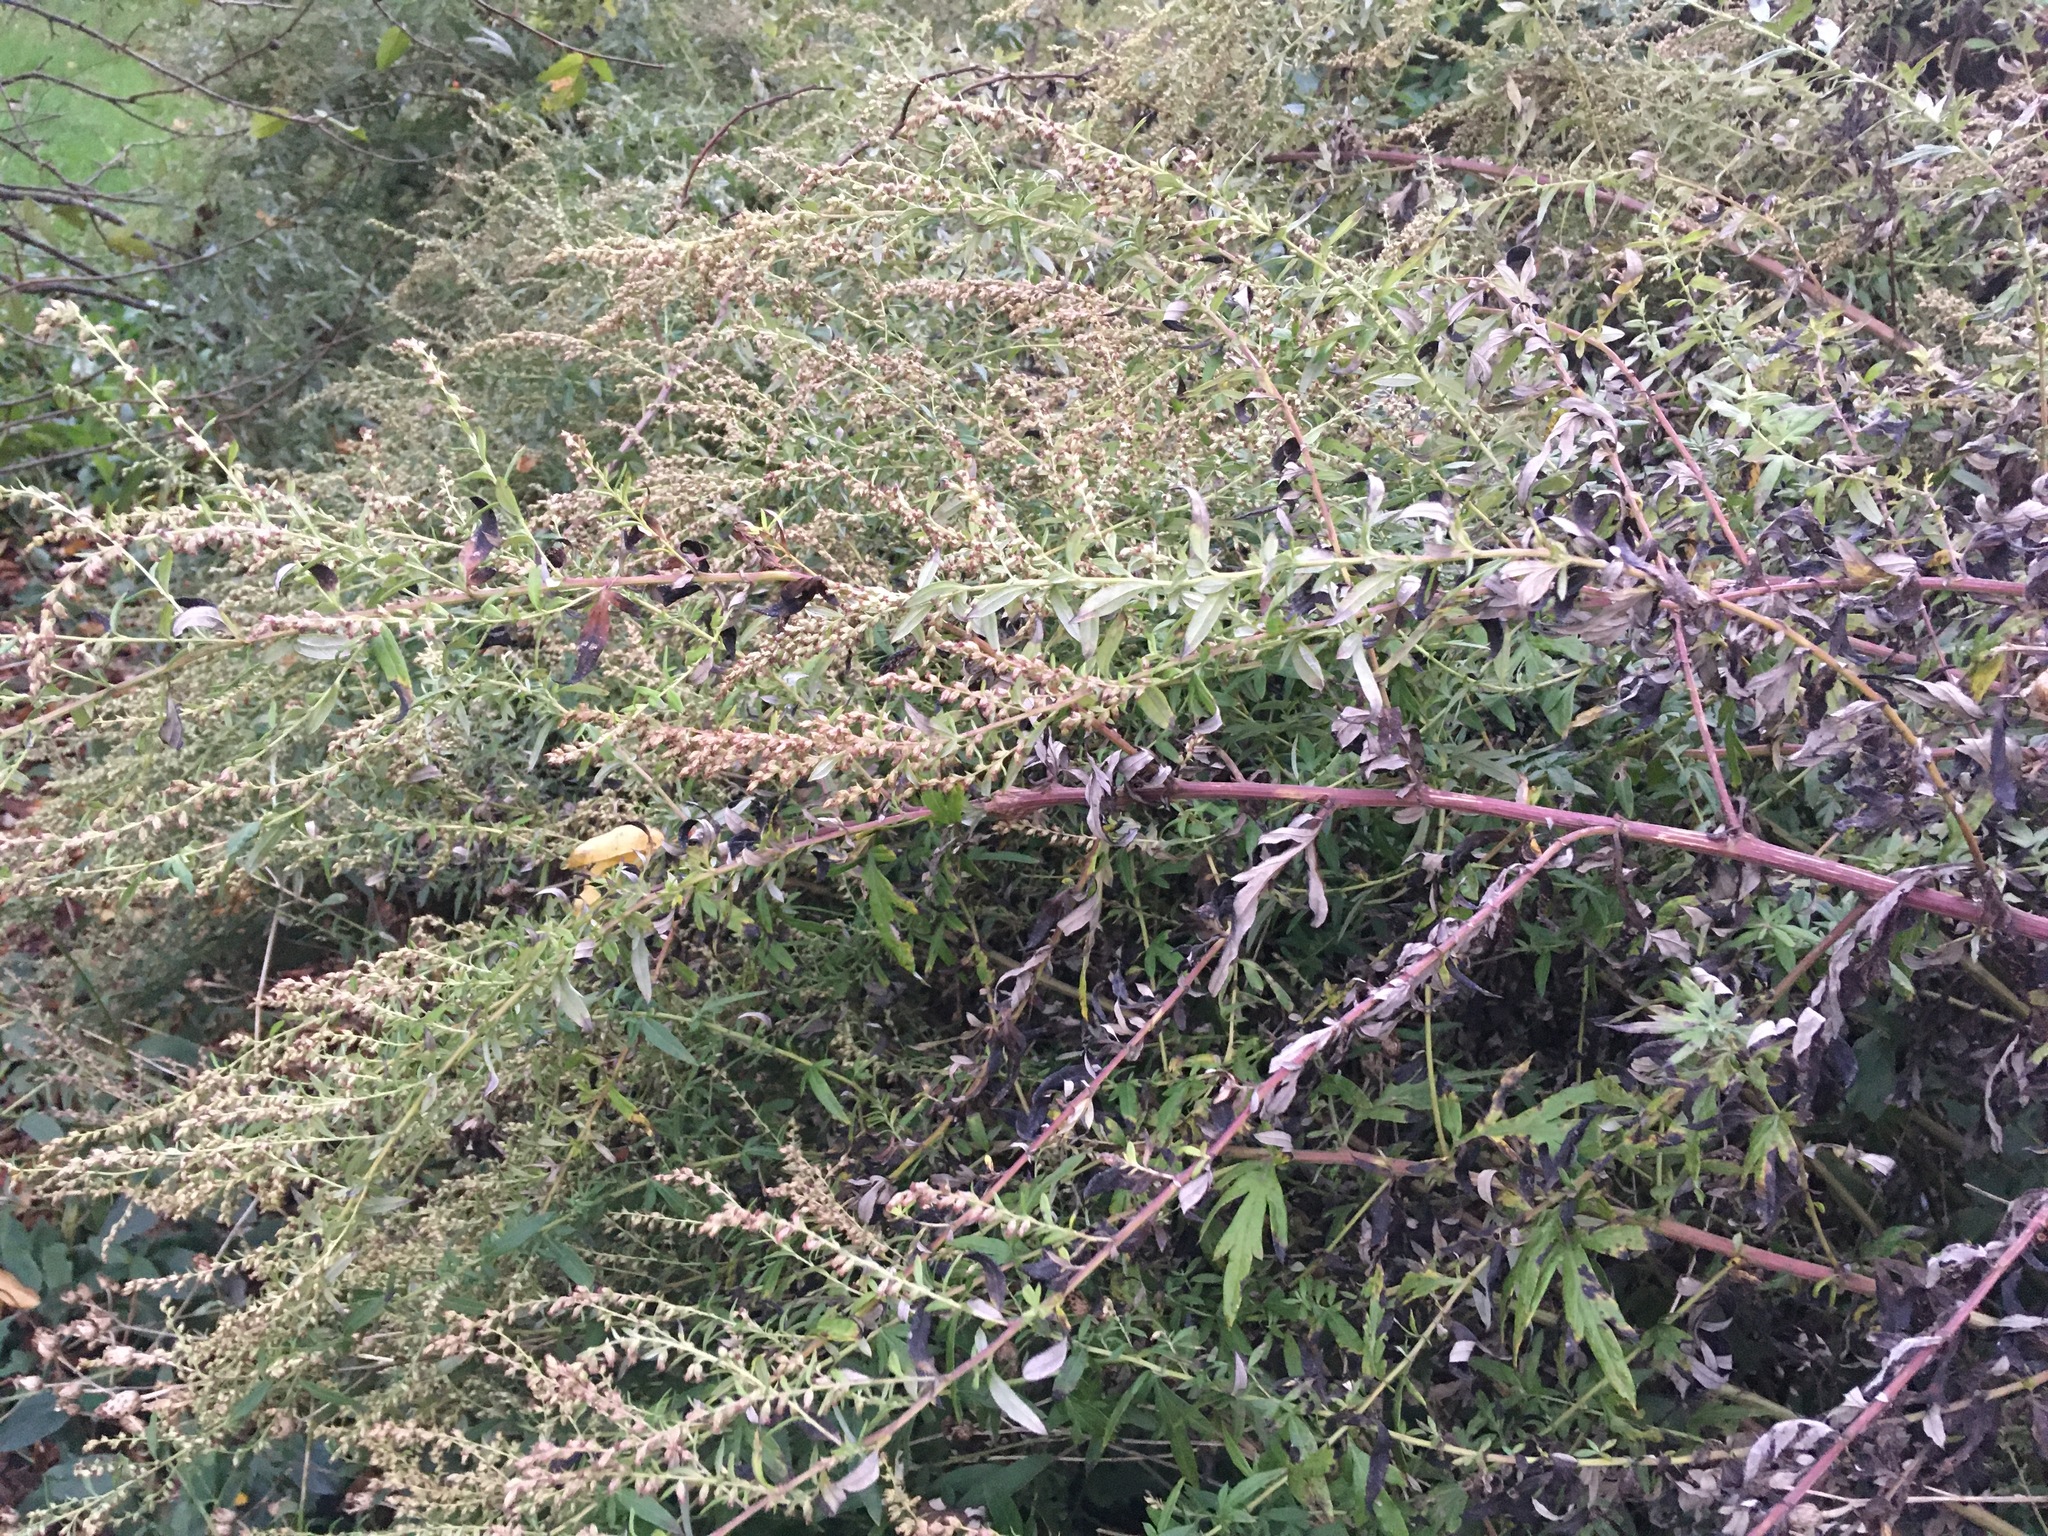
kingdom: Plantae
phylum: Tracheophyta
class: Magnoliopsida
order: Asterales
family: Asteraceae
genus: Artemisia
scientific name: Artemisia vulgaris
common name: Mugwort
